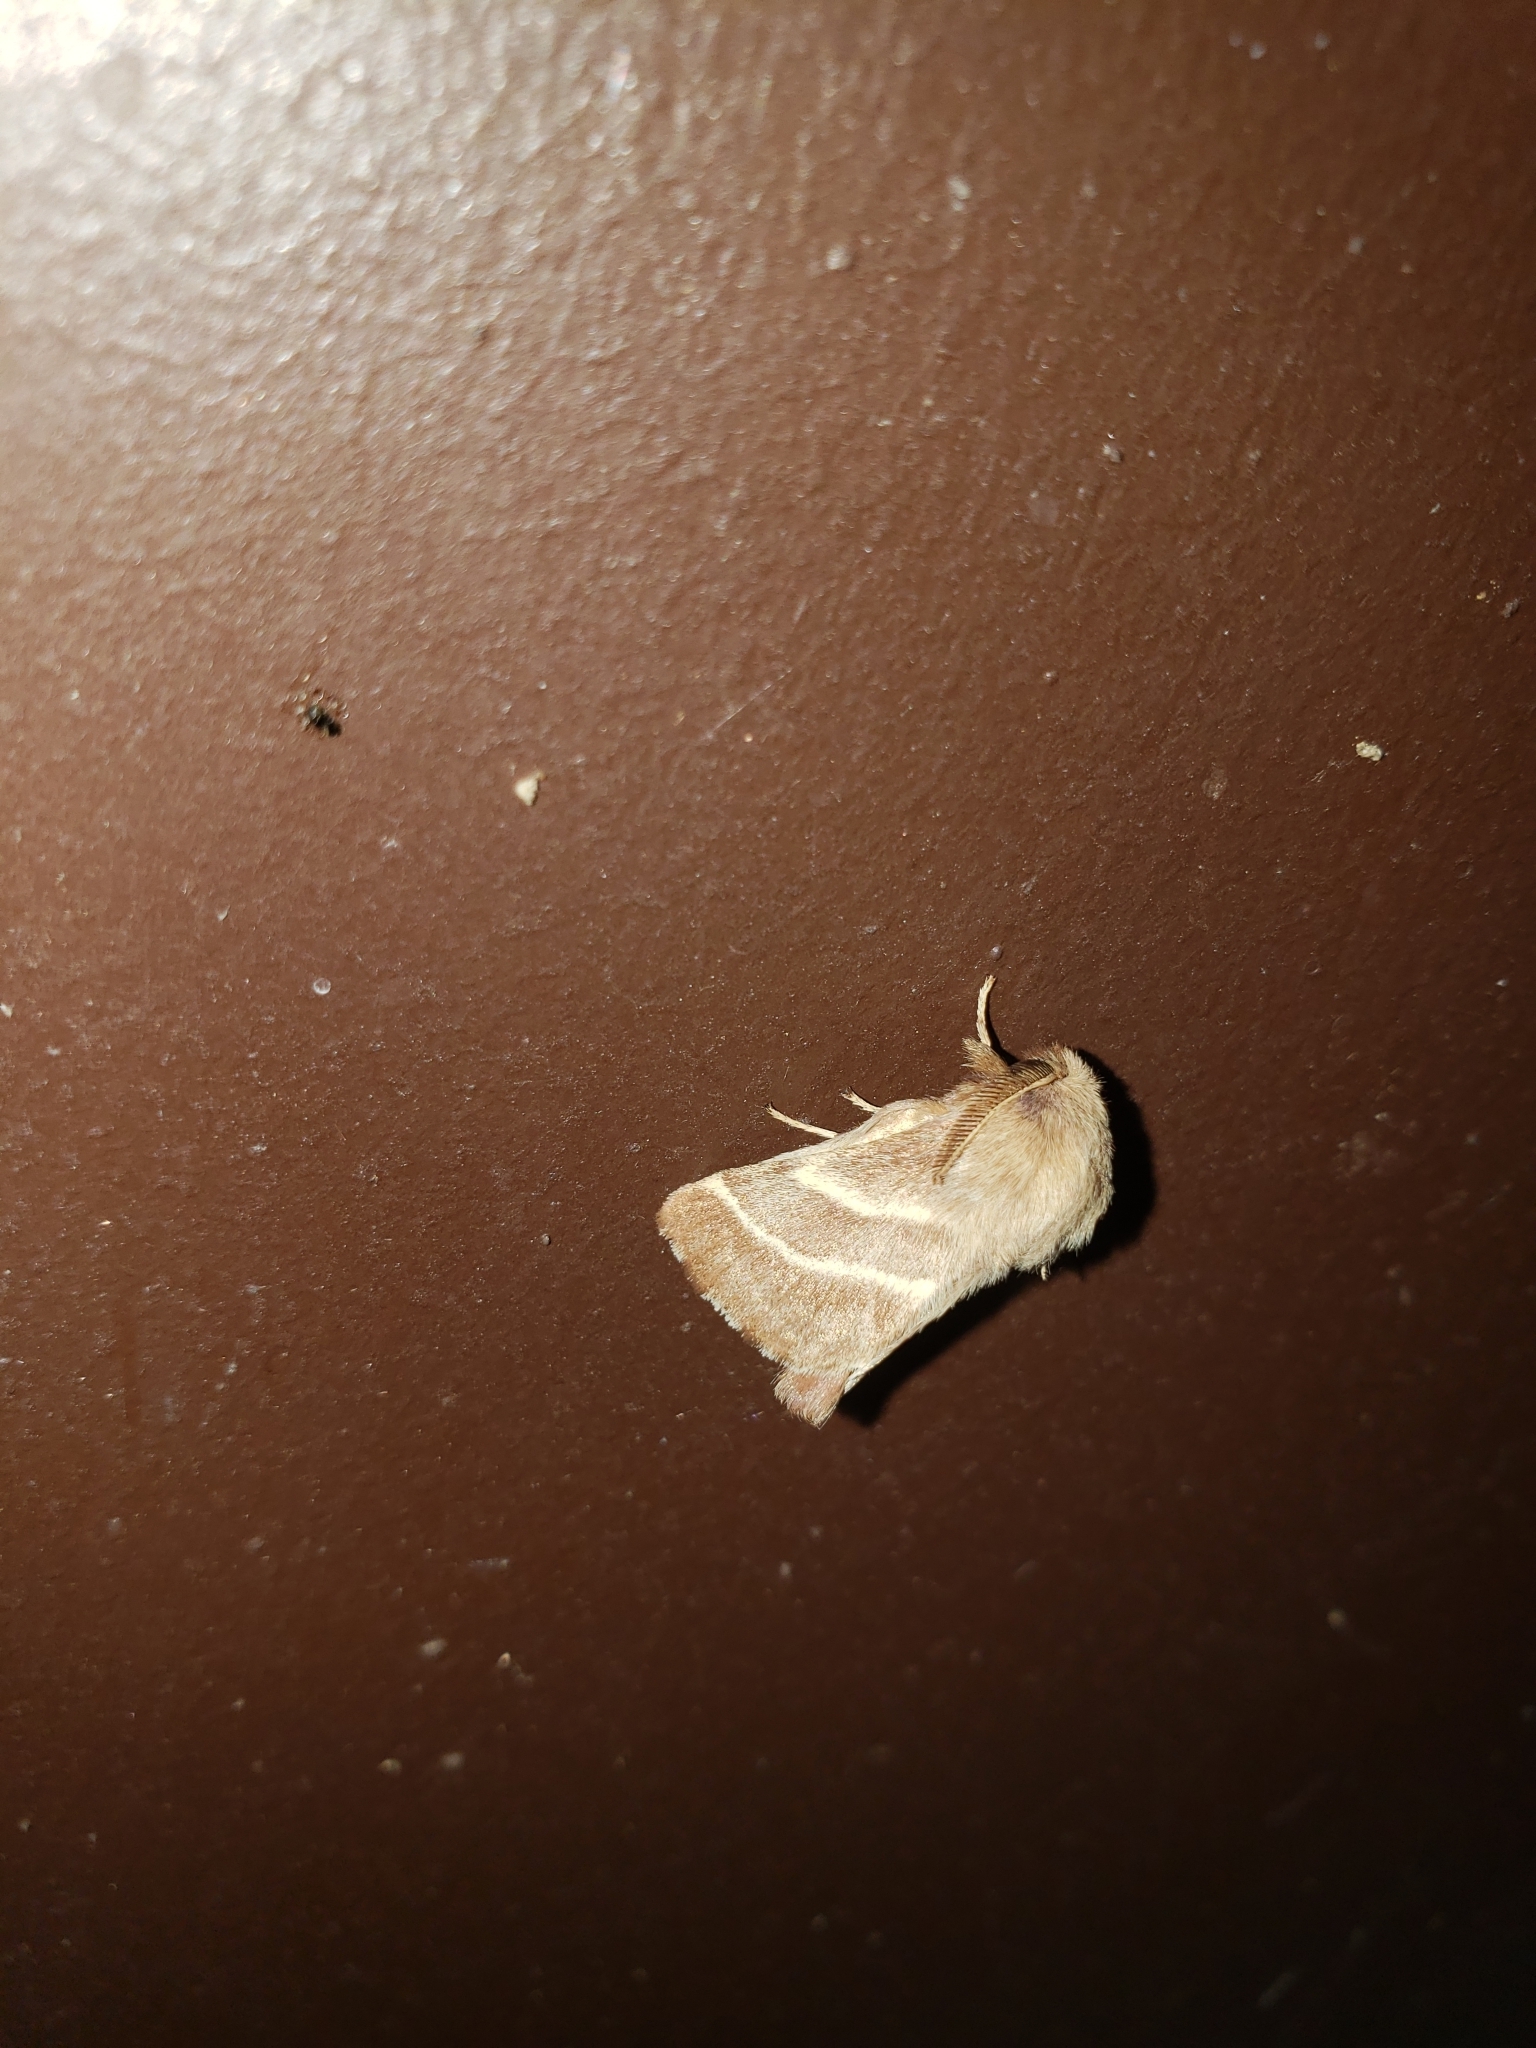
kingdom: Animalia
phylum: Arthropoda
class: Insecta
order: Lepidoptera
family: Lasiocampidae
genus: Malacosoma
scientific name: Malacosoma americana
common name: Eastern tent caterpillar moth
